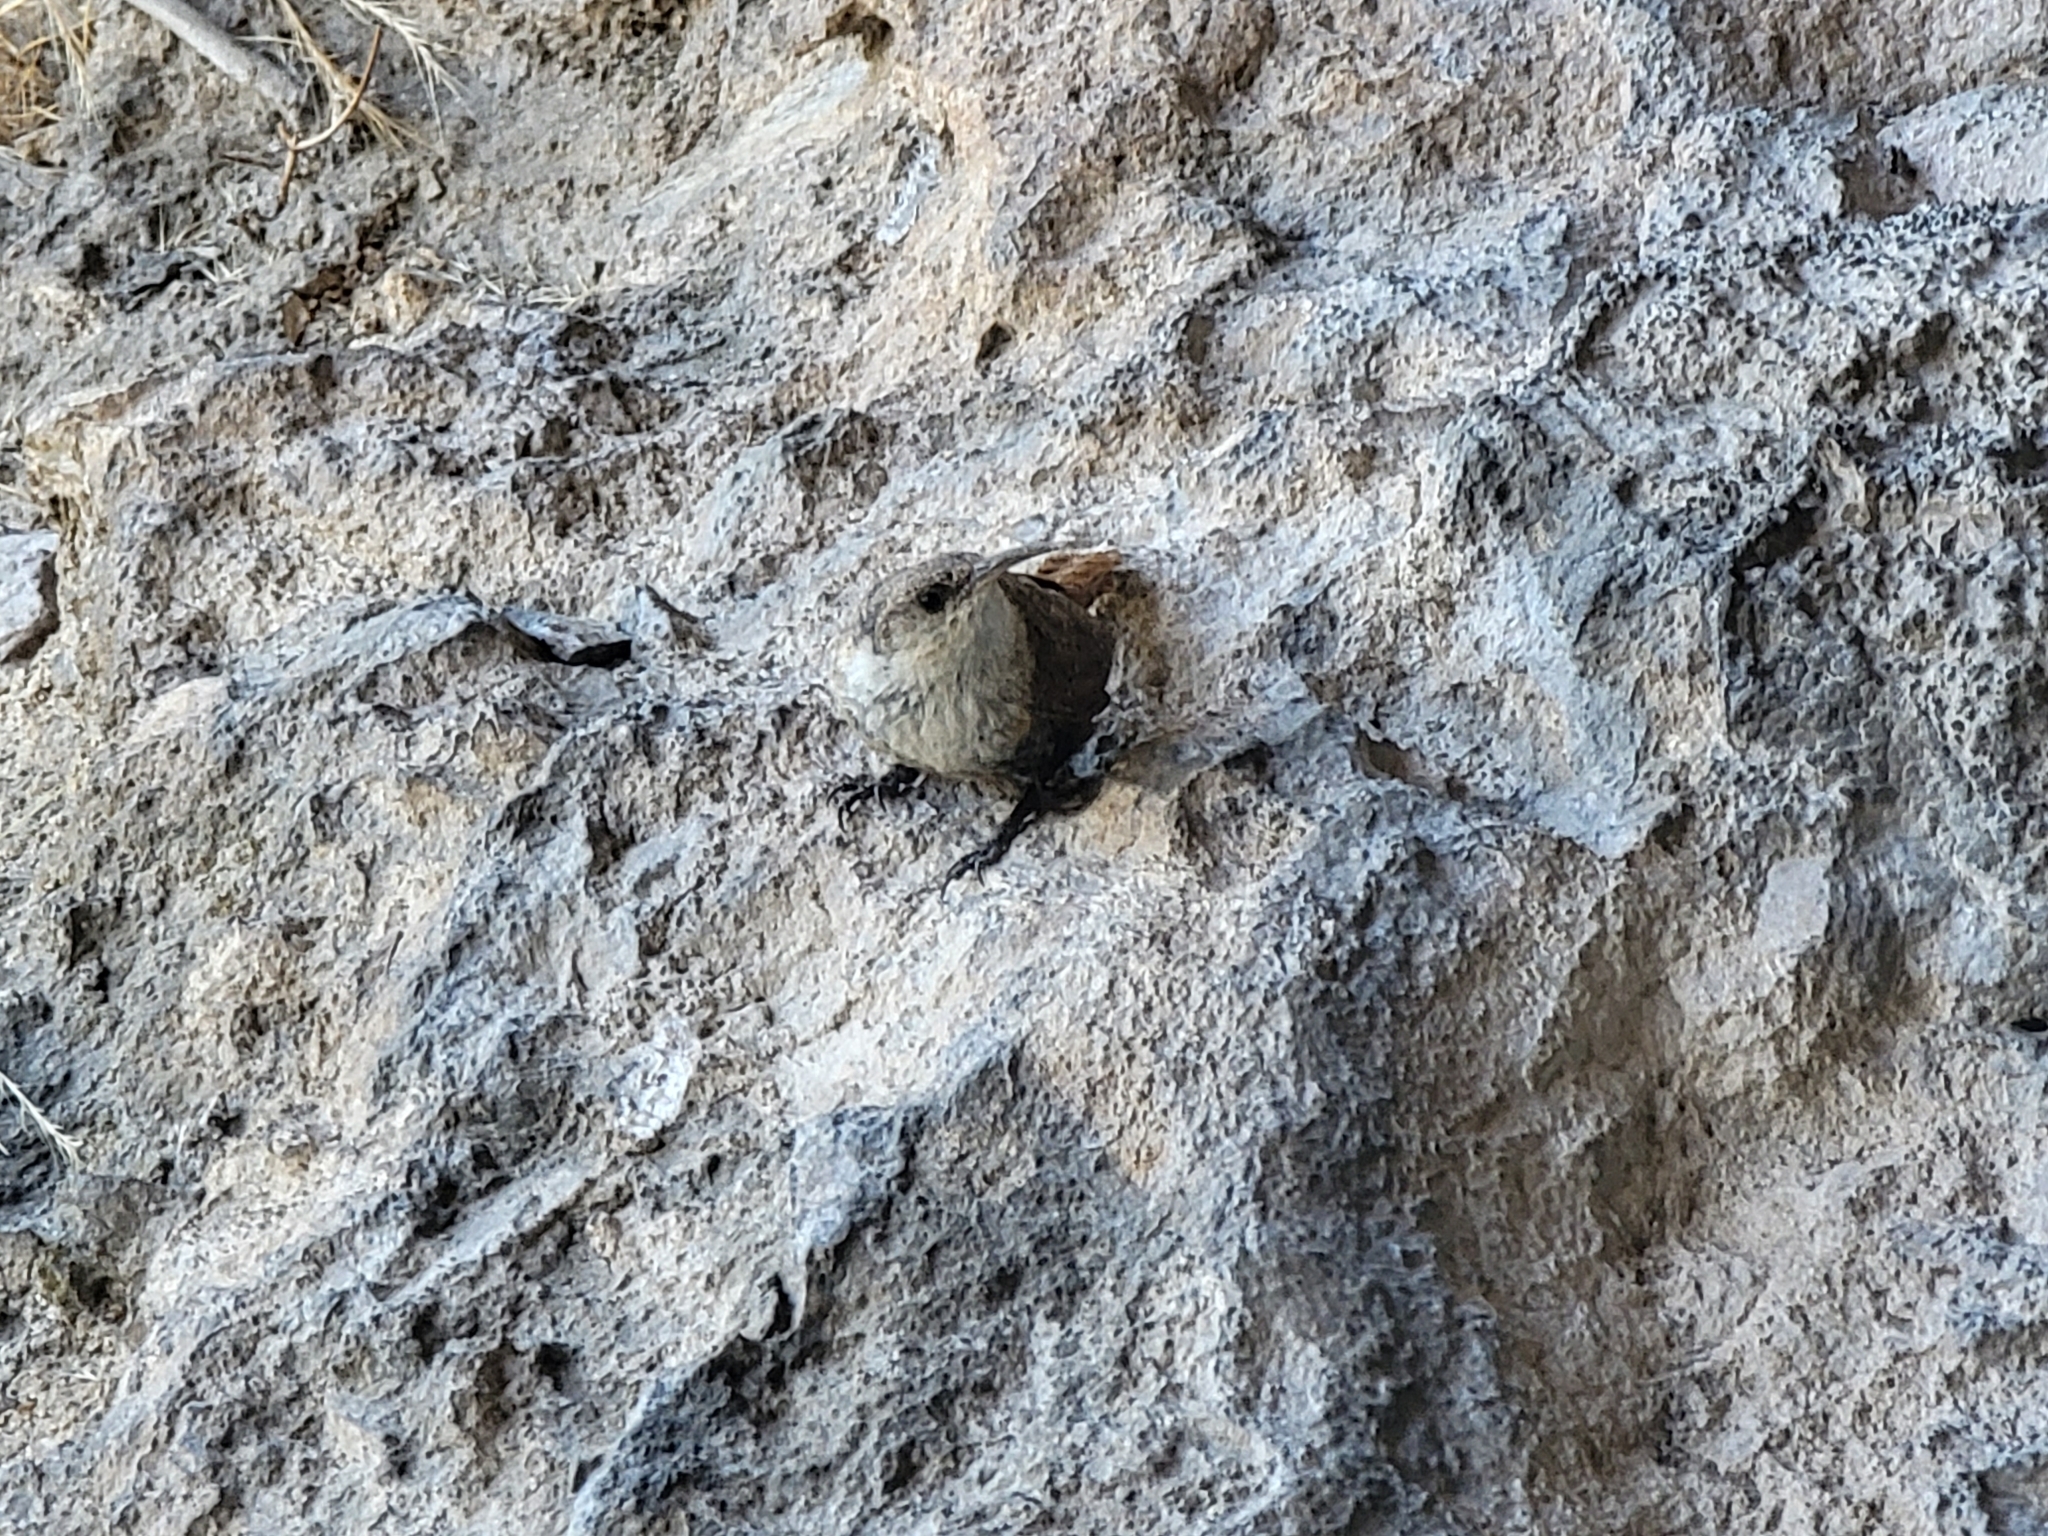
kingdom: Animalia
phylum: Chordata
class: Aves
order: Passeriformes
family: Troglodytidae
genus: Catherpes
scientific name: Catherpes mexicanus
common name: Canyon wren
